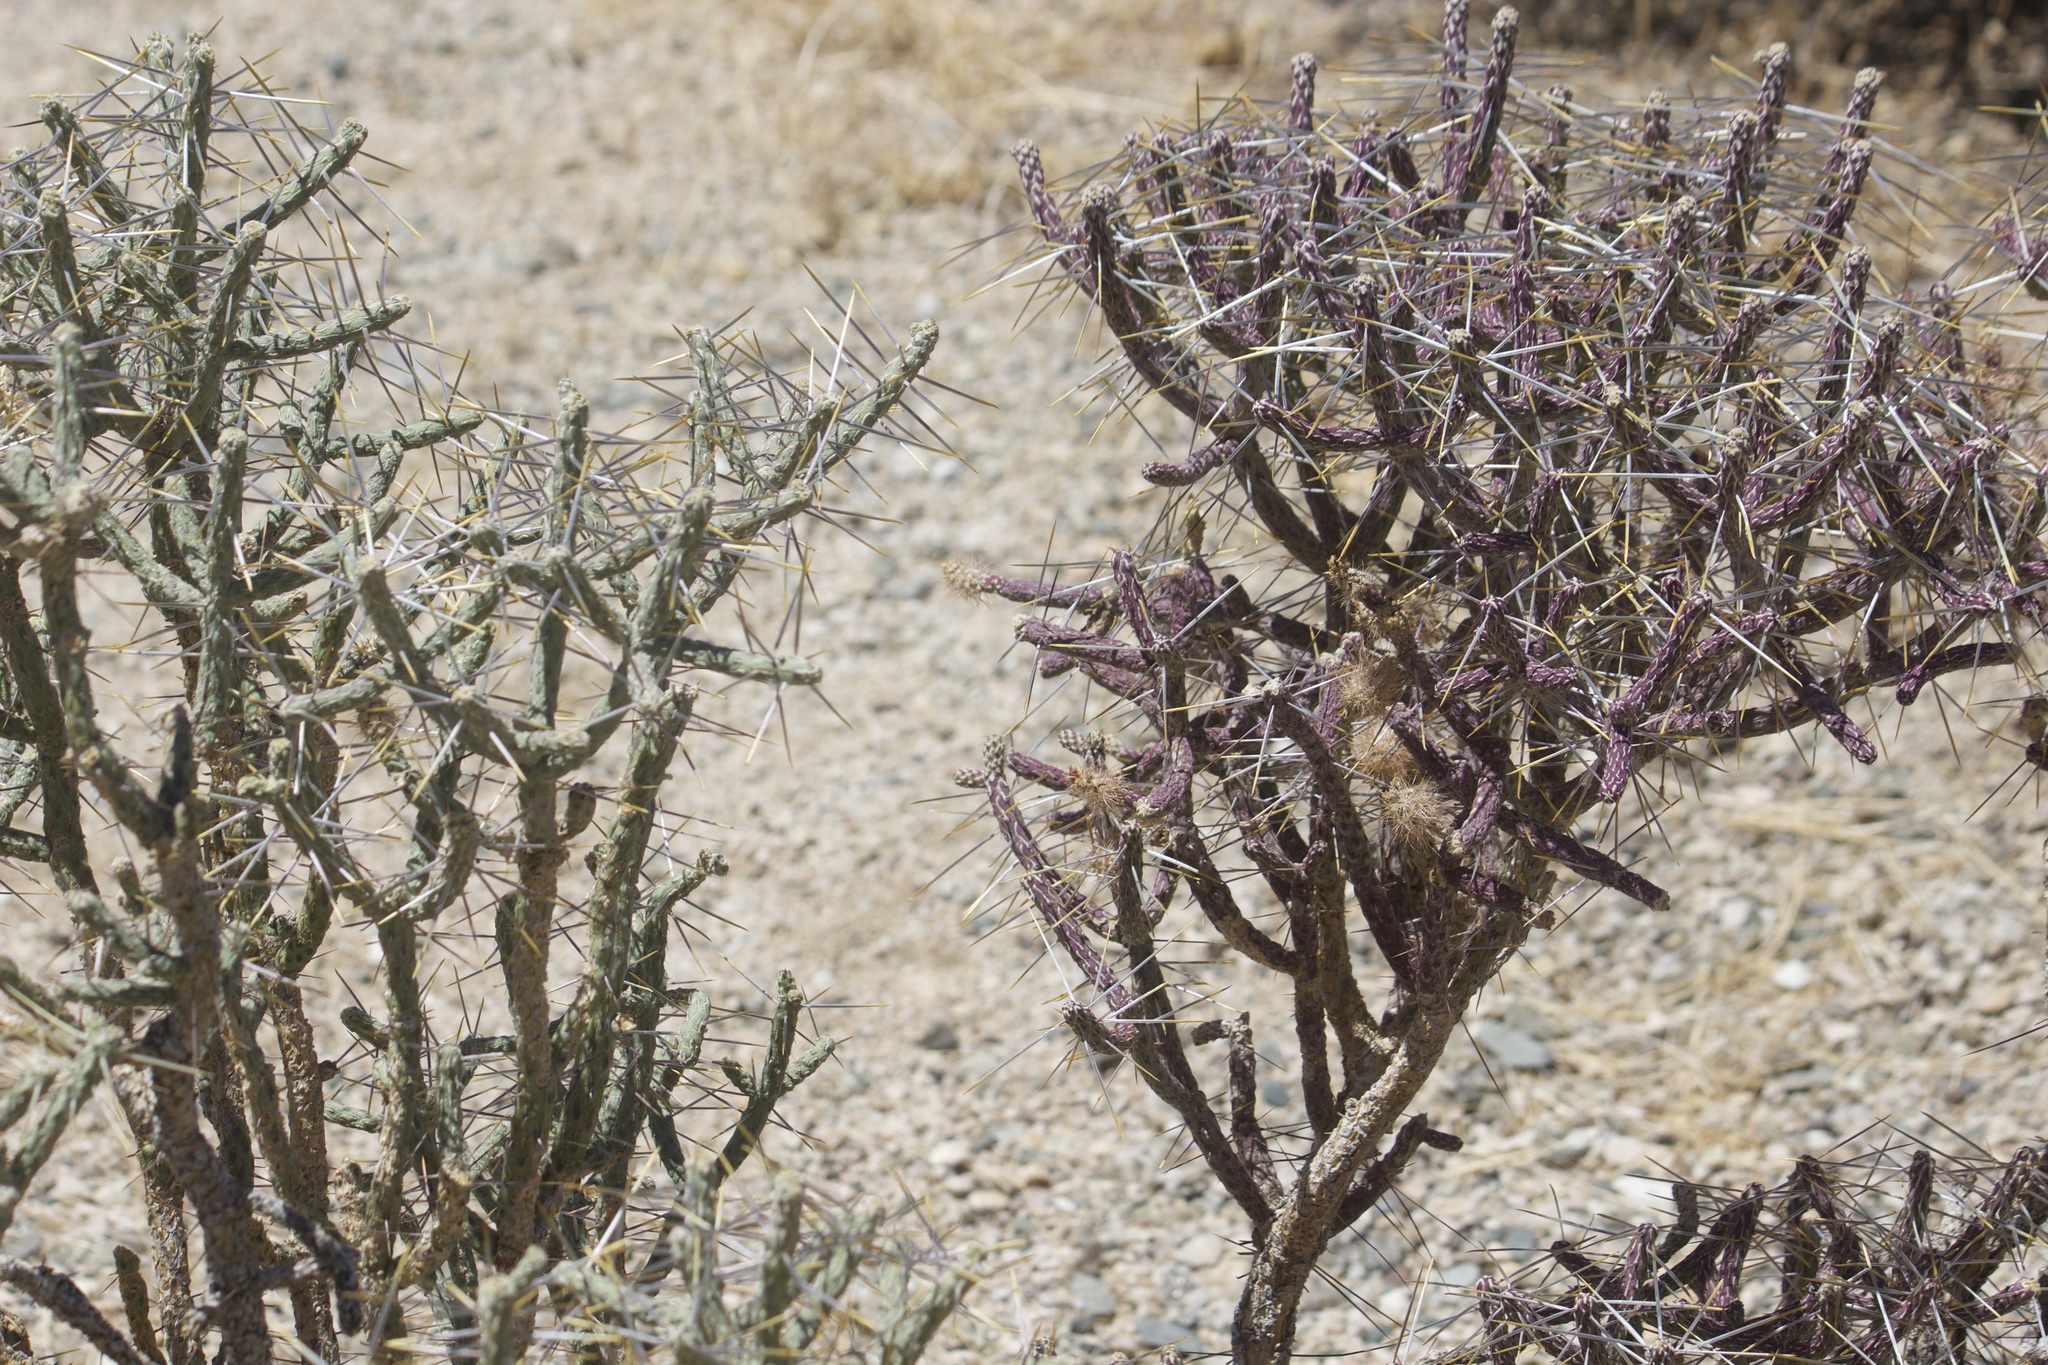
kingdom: Plantae
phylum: Tracheophyta
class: Magnoliopsida
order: Caryophyllales
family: Cactaceae
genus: Cylindropuntia
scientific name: Cylindropuntia ramosissima
